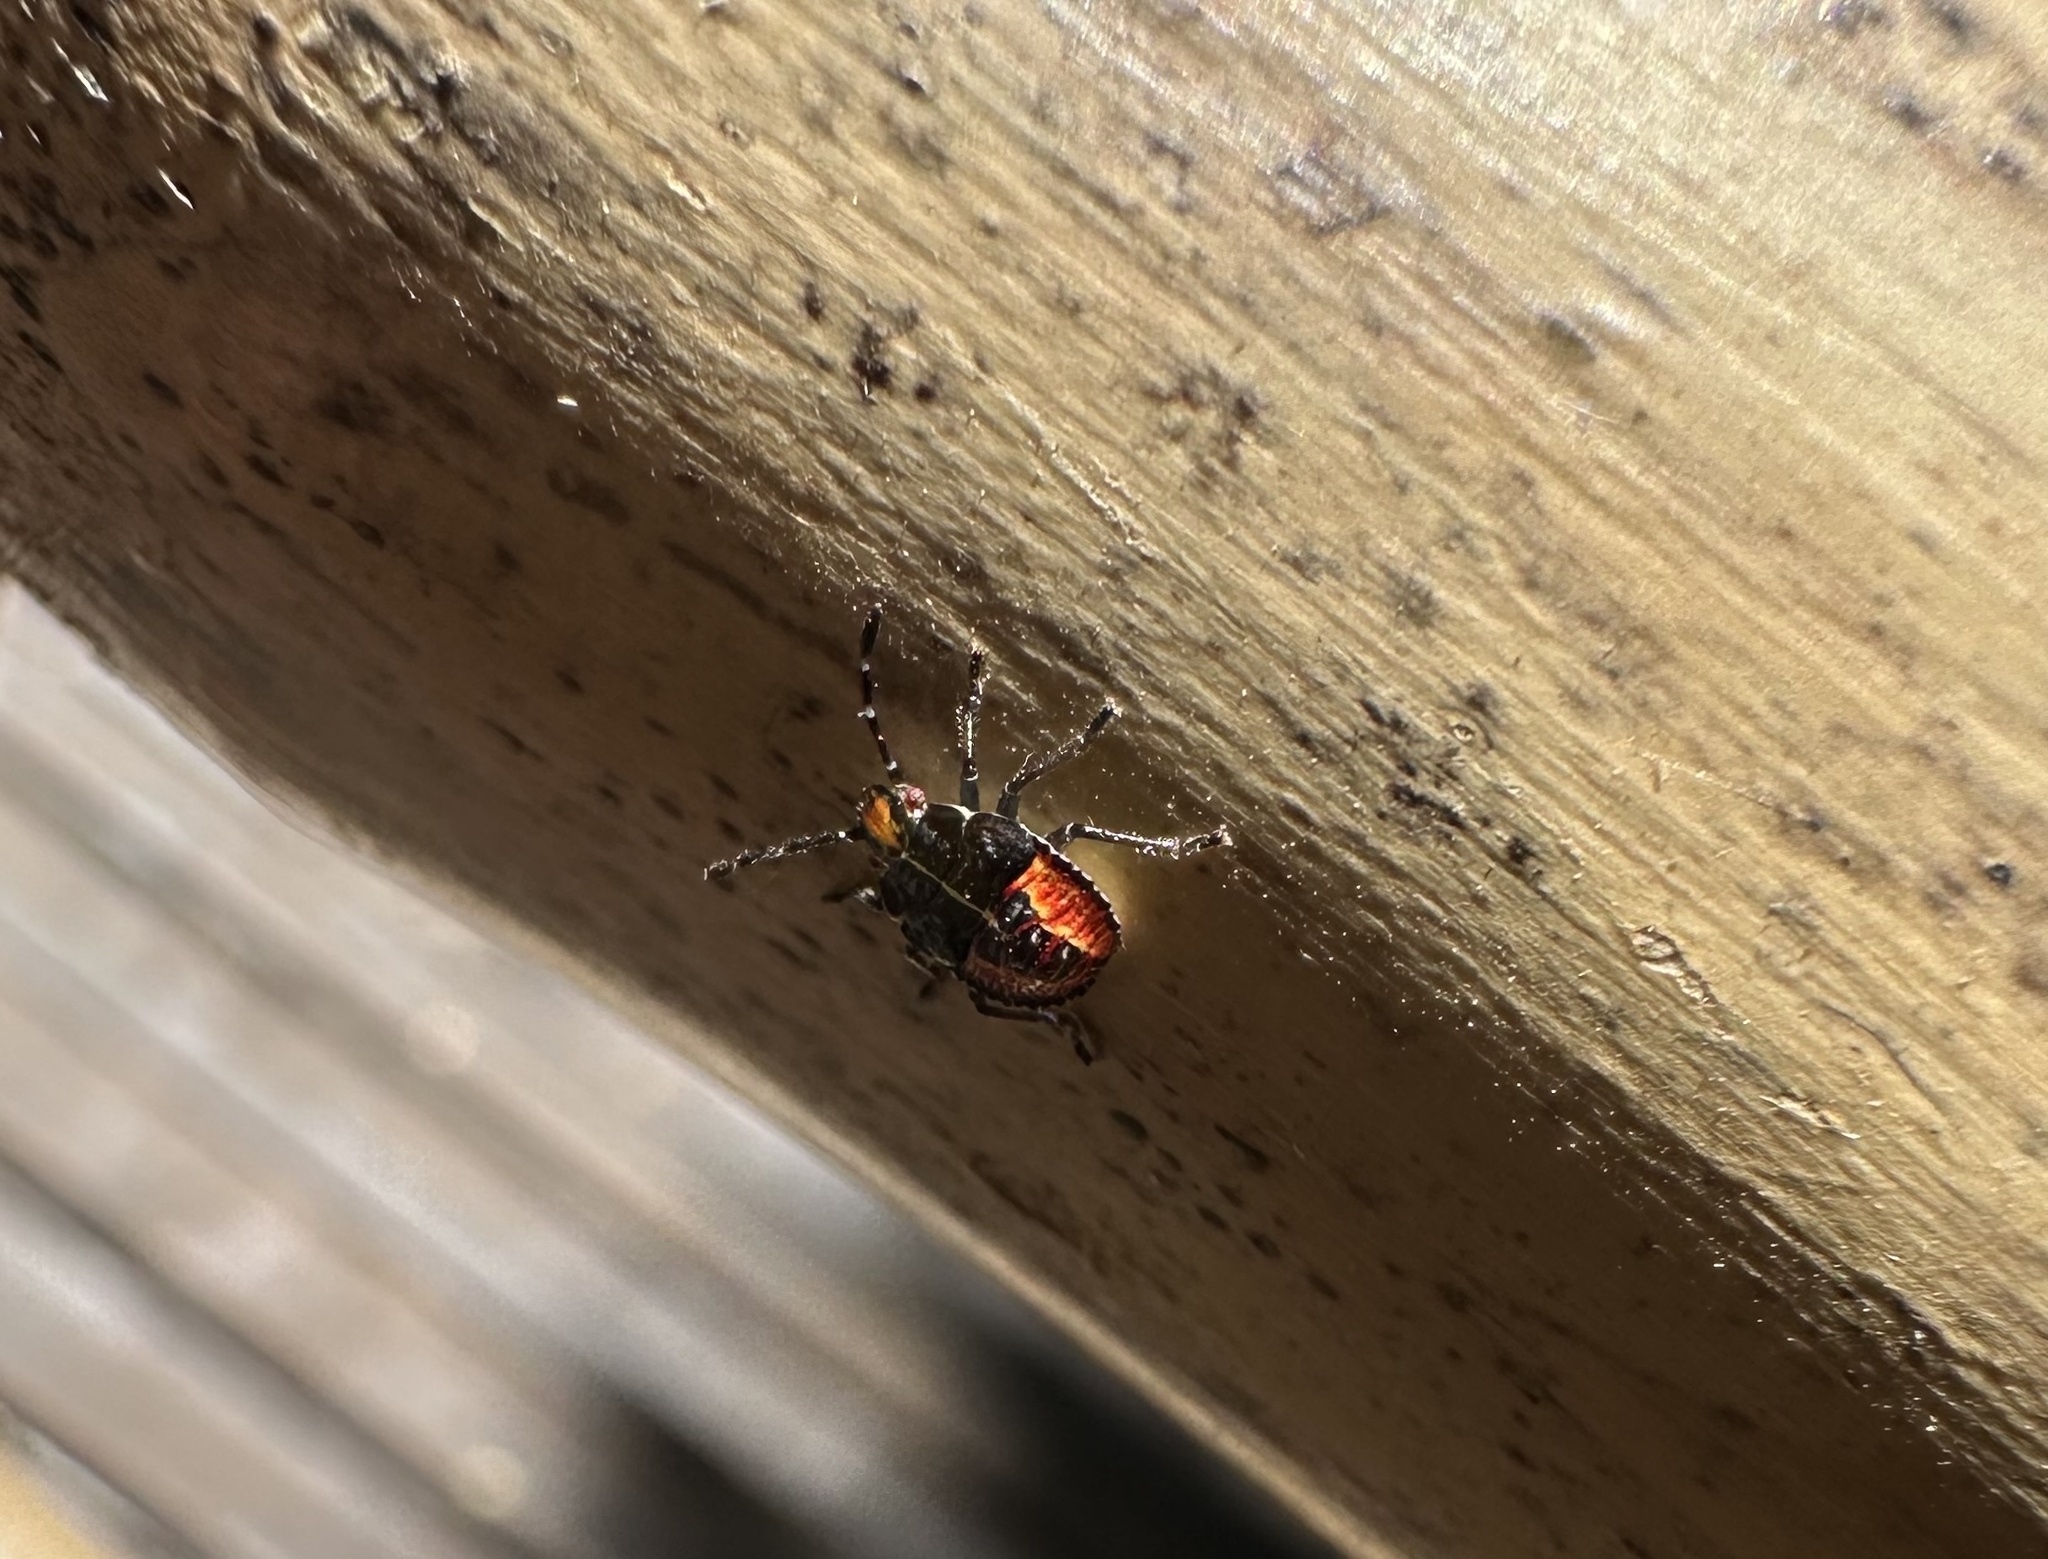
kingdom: Animalia
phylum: Arthropoda
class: Insecta
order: Hemiptera
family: Acanthosomatidae
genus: Sinopla
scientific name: Sinopla perpunctatus
